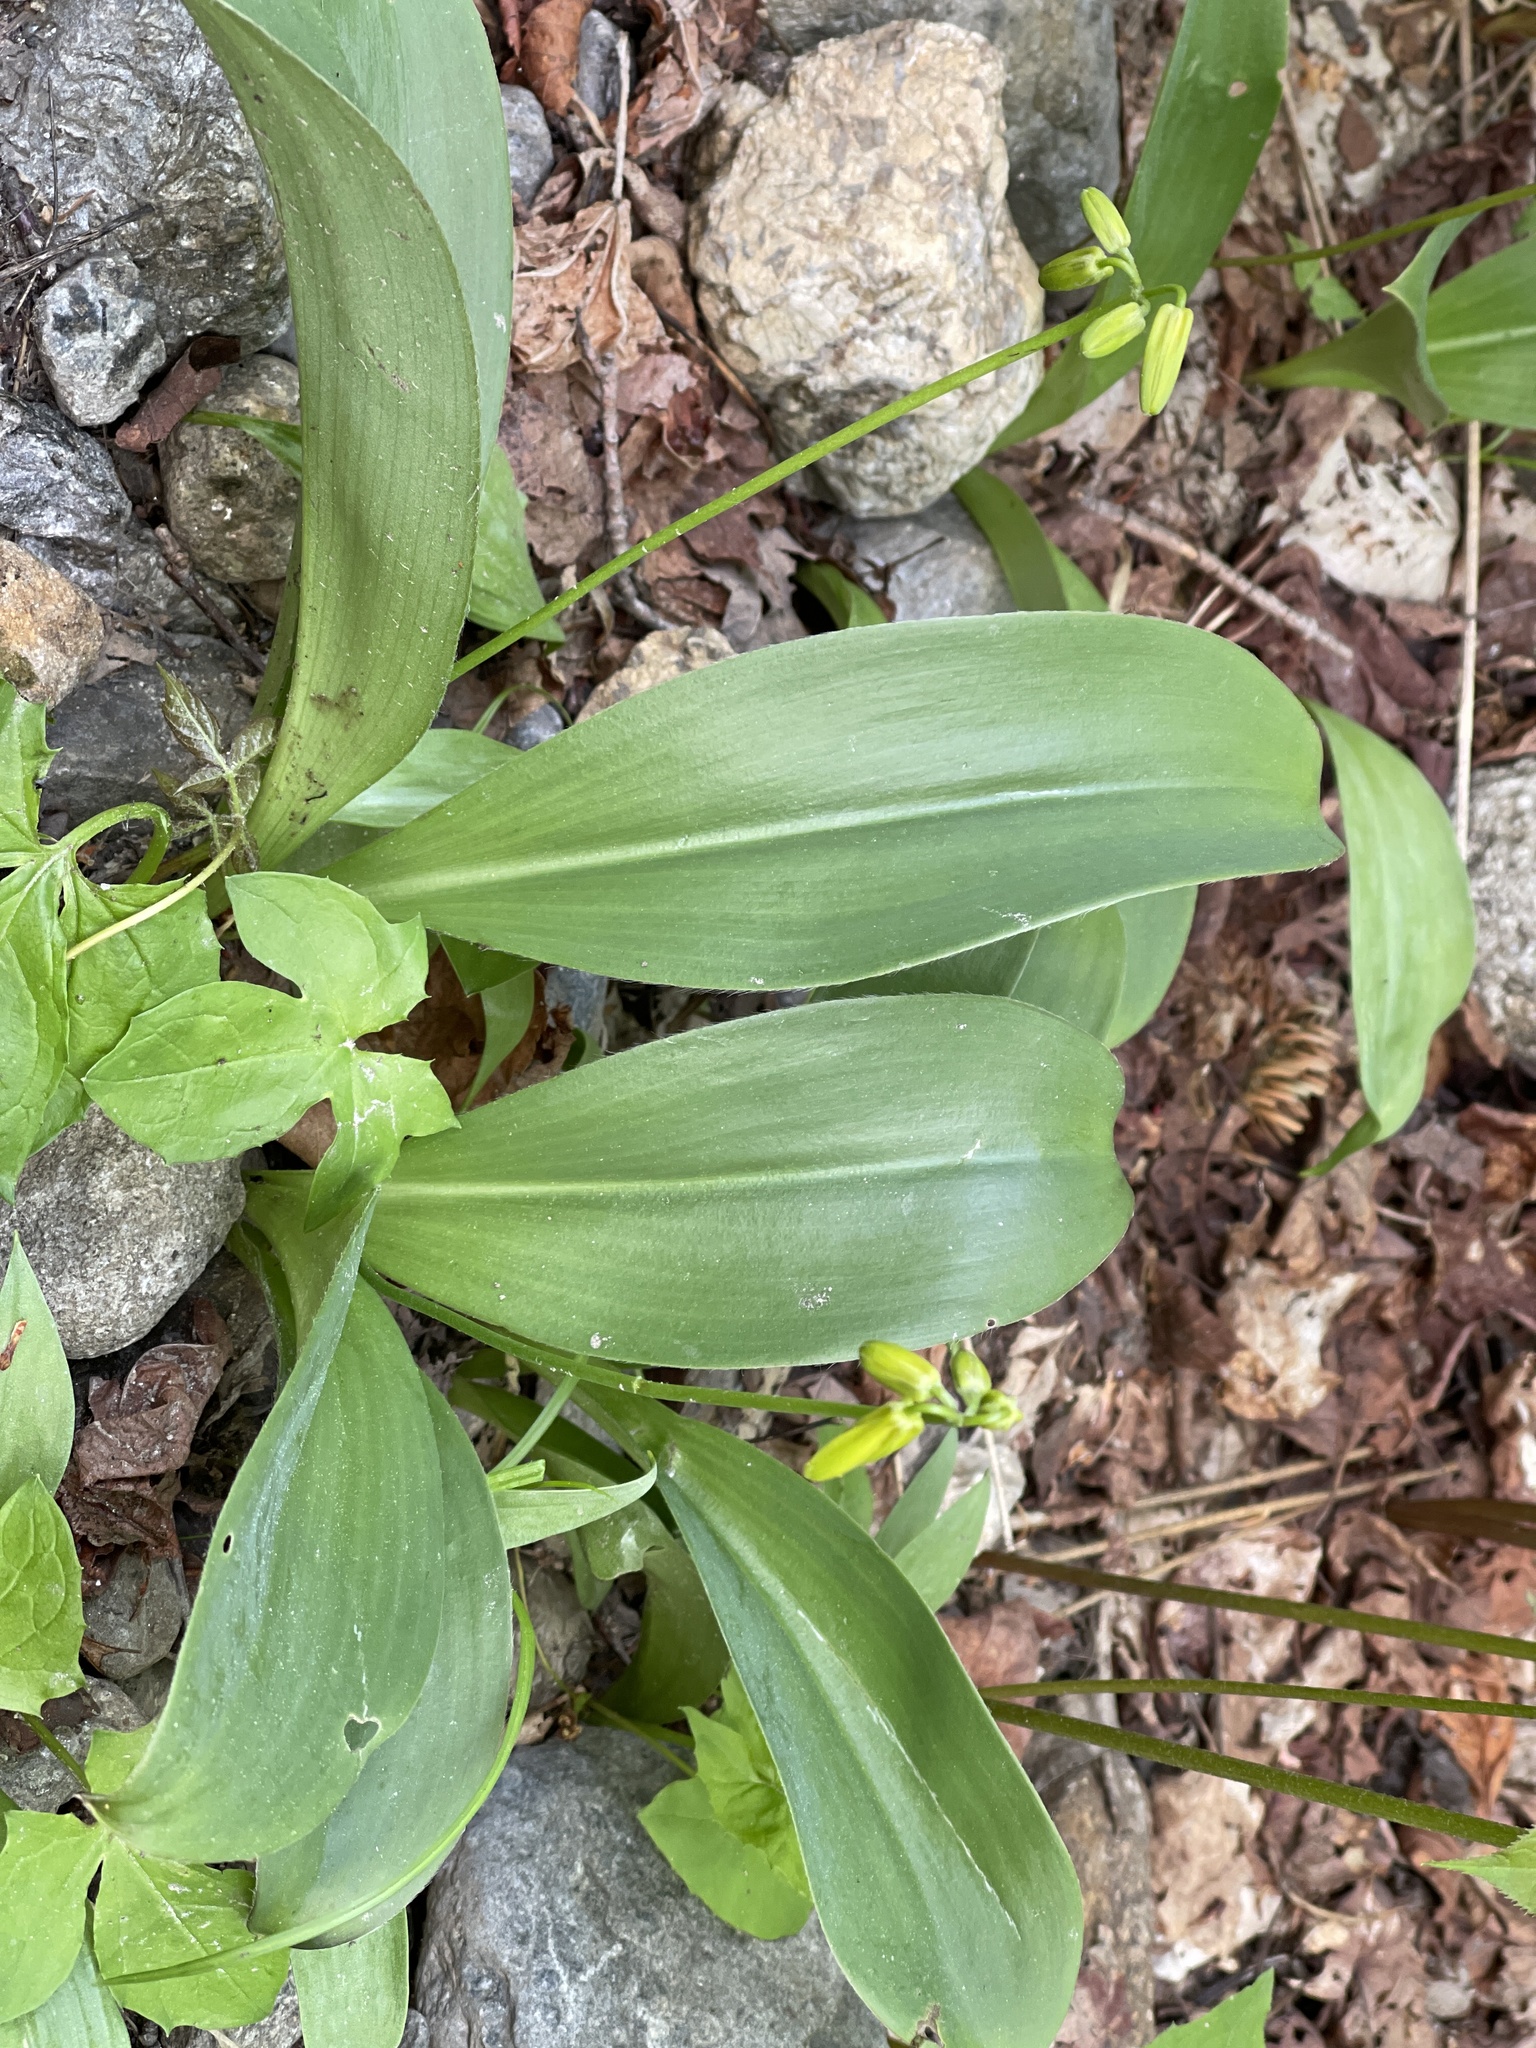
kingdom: Plantae
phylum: Tracheophyta
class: Liliopsida
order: Liliales
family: Liliaceae
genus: Clintonia
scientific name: Clintonia borealis
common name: Yellow clintonia
